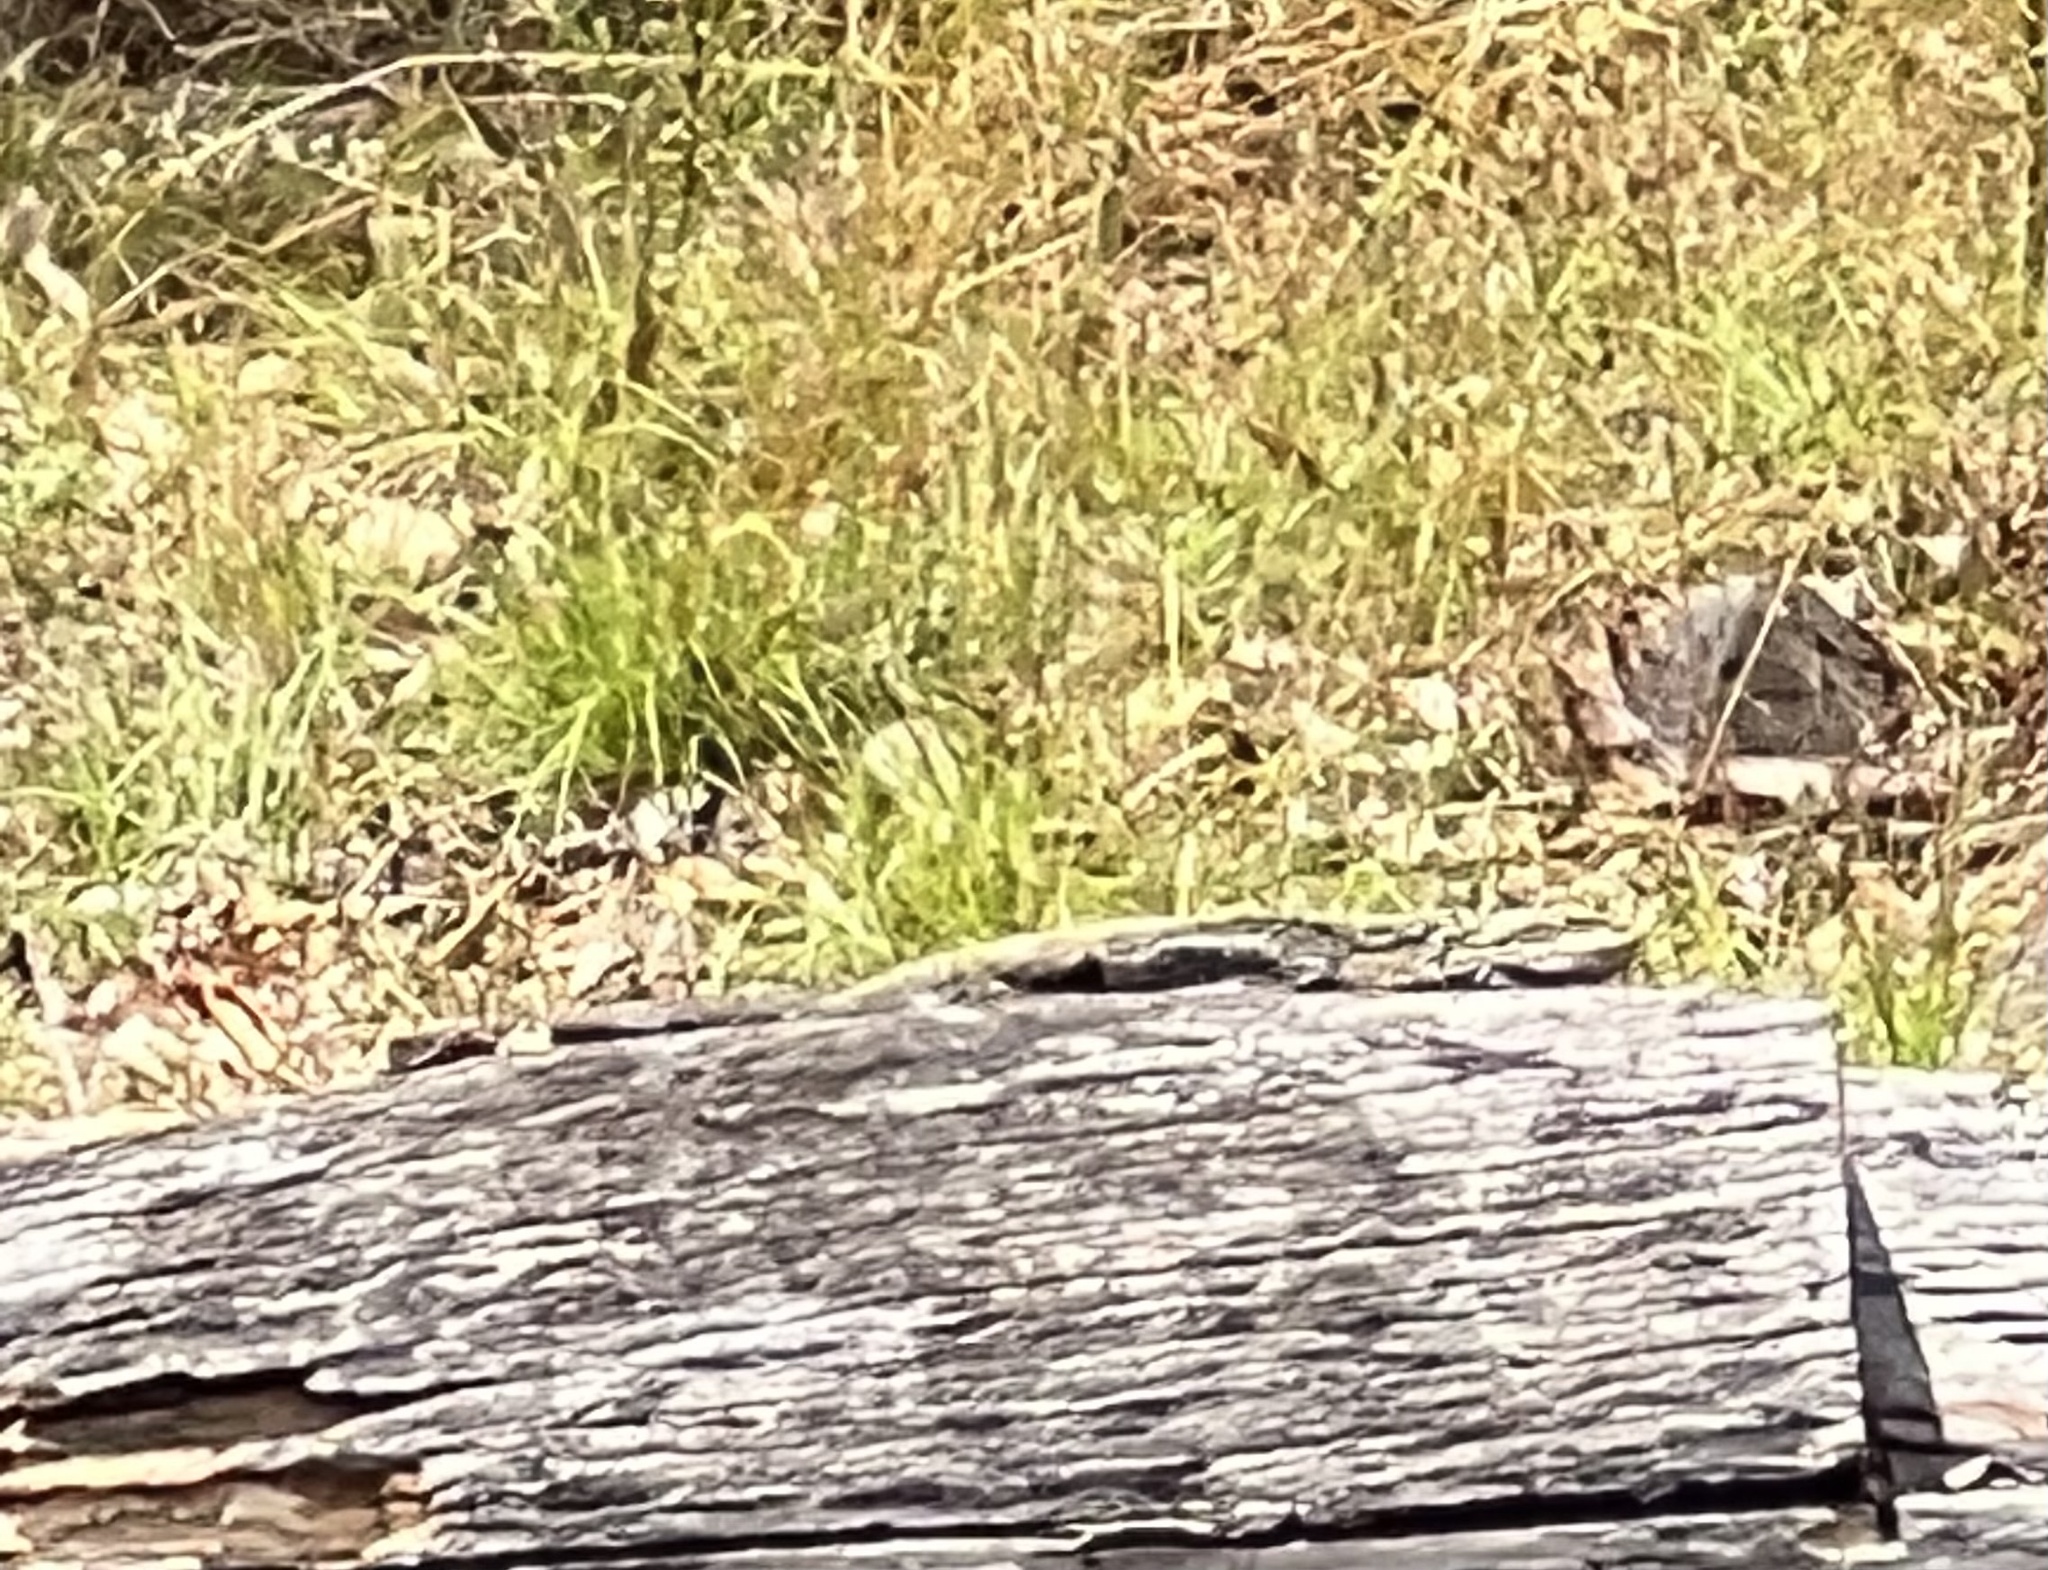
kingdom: Animalia
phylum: Chordata
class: Squamata
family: Agamidae
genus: Pogona
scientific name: Pogona barbata
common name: Bearded dragon
